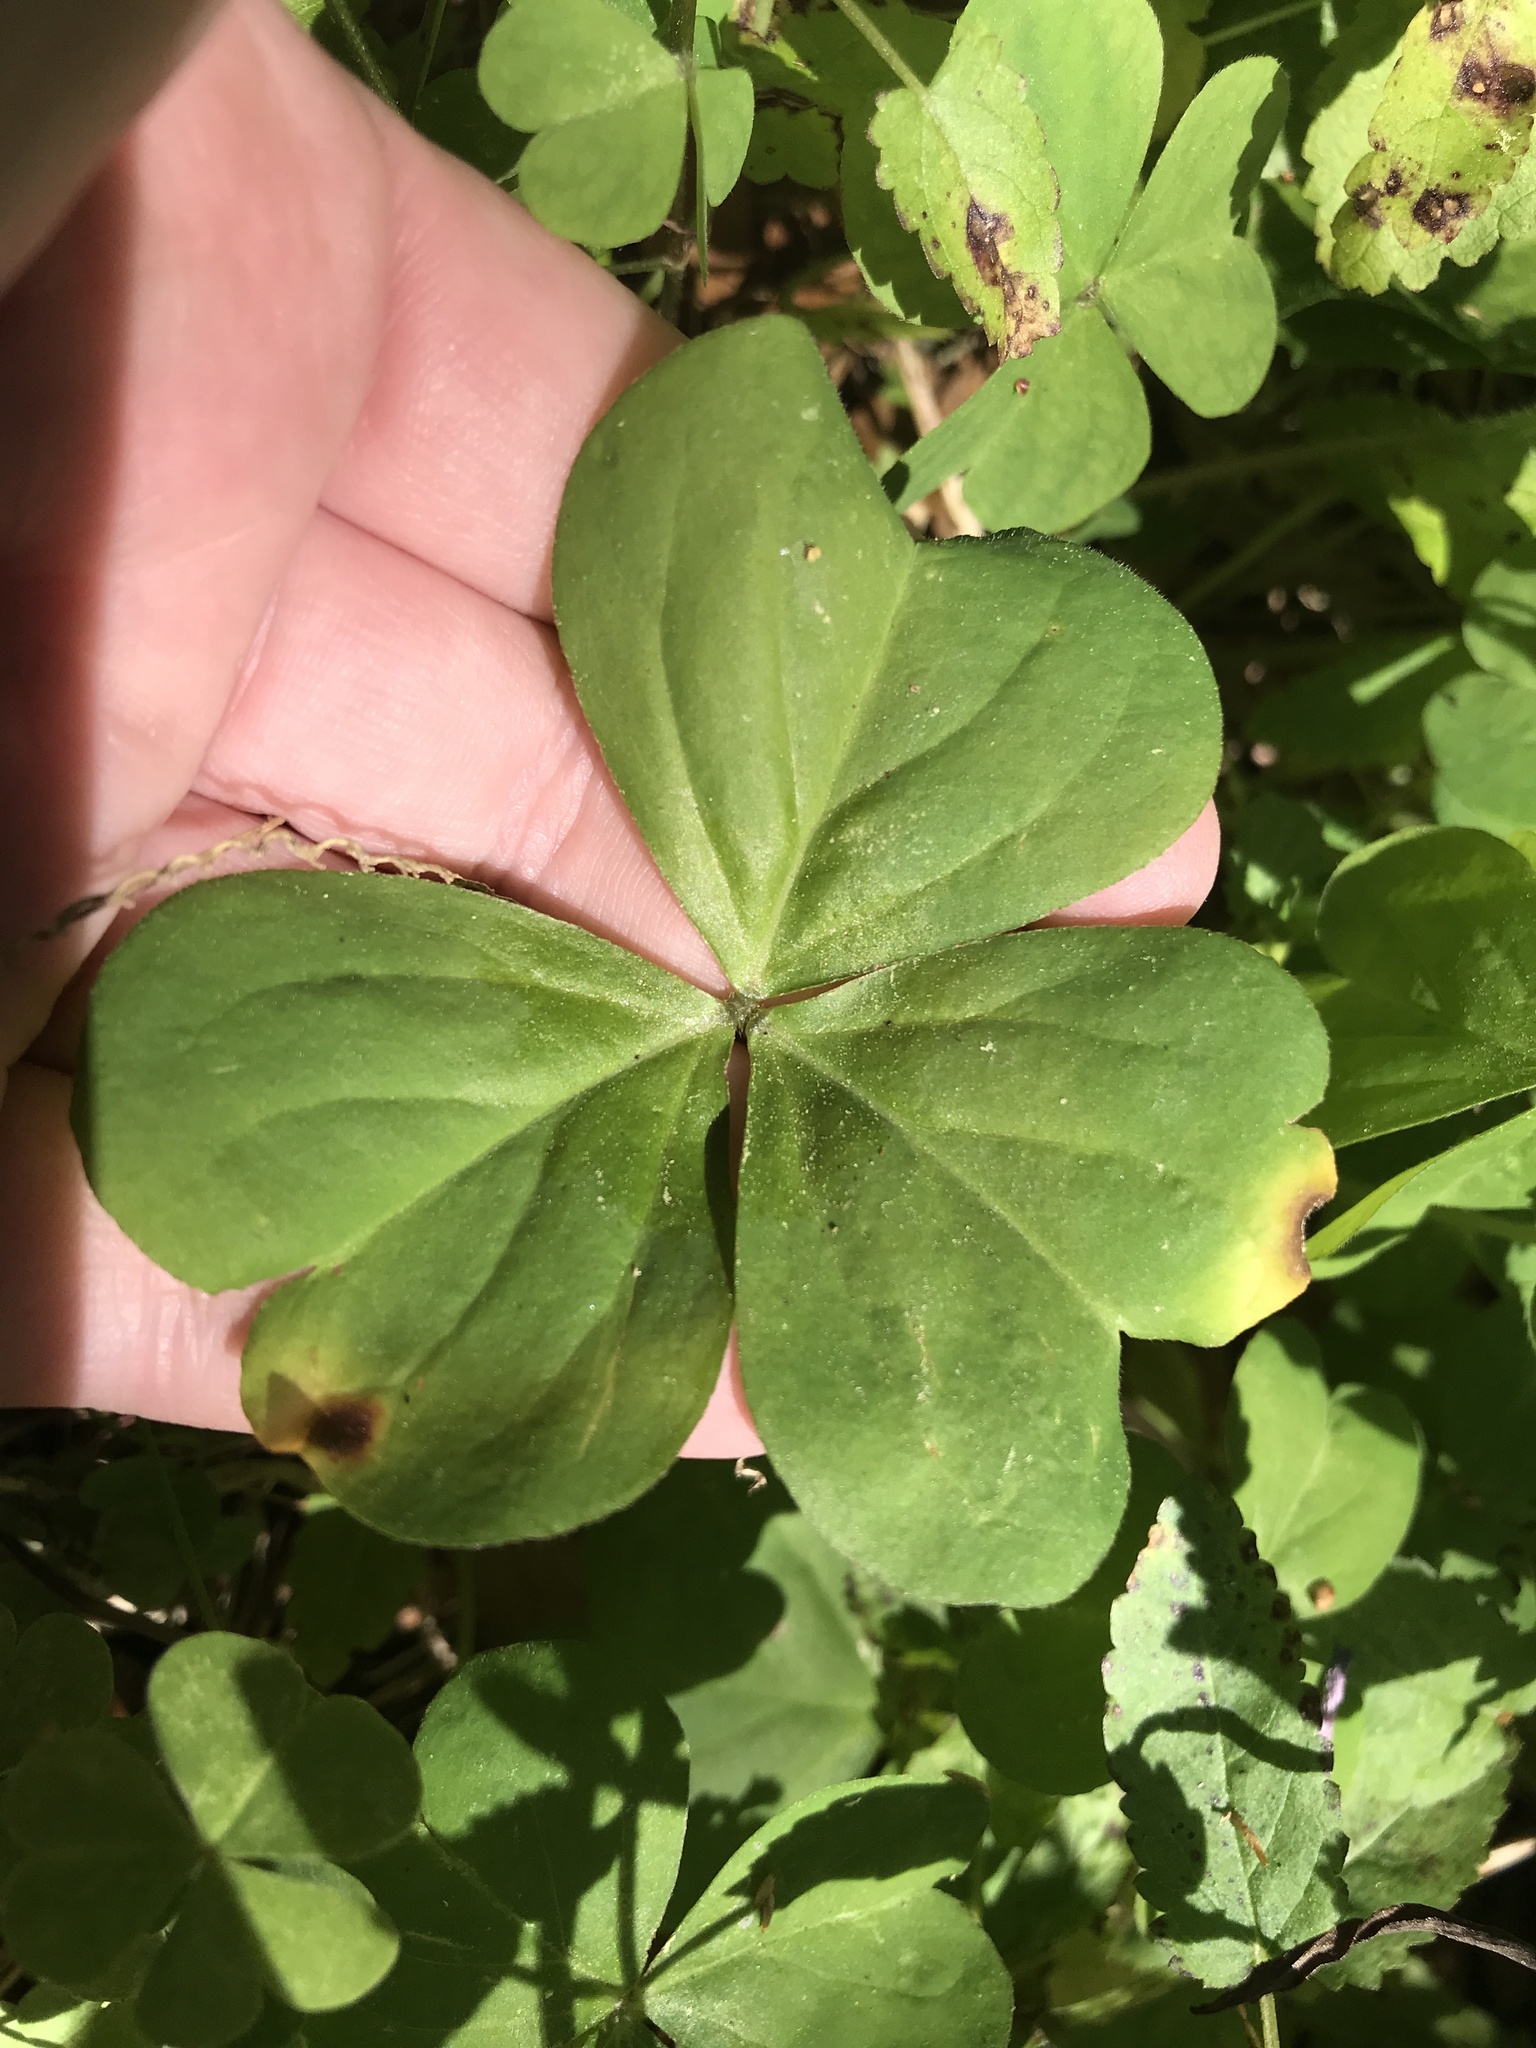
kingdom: Plantae
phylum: Tracheophyta
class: Magnoliopsida
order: Oxalidales
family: Oxalidaceae
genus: Oxalis
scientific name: Oxalis debilis
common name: Large-flowered pink-sorrel
